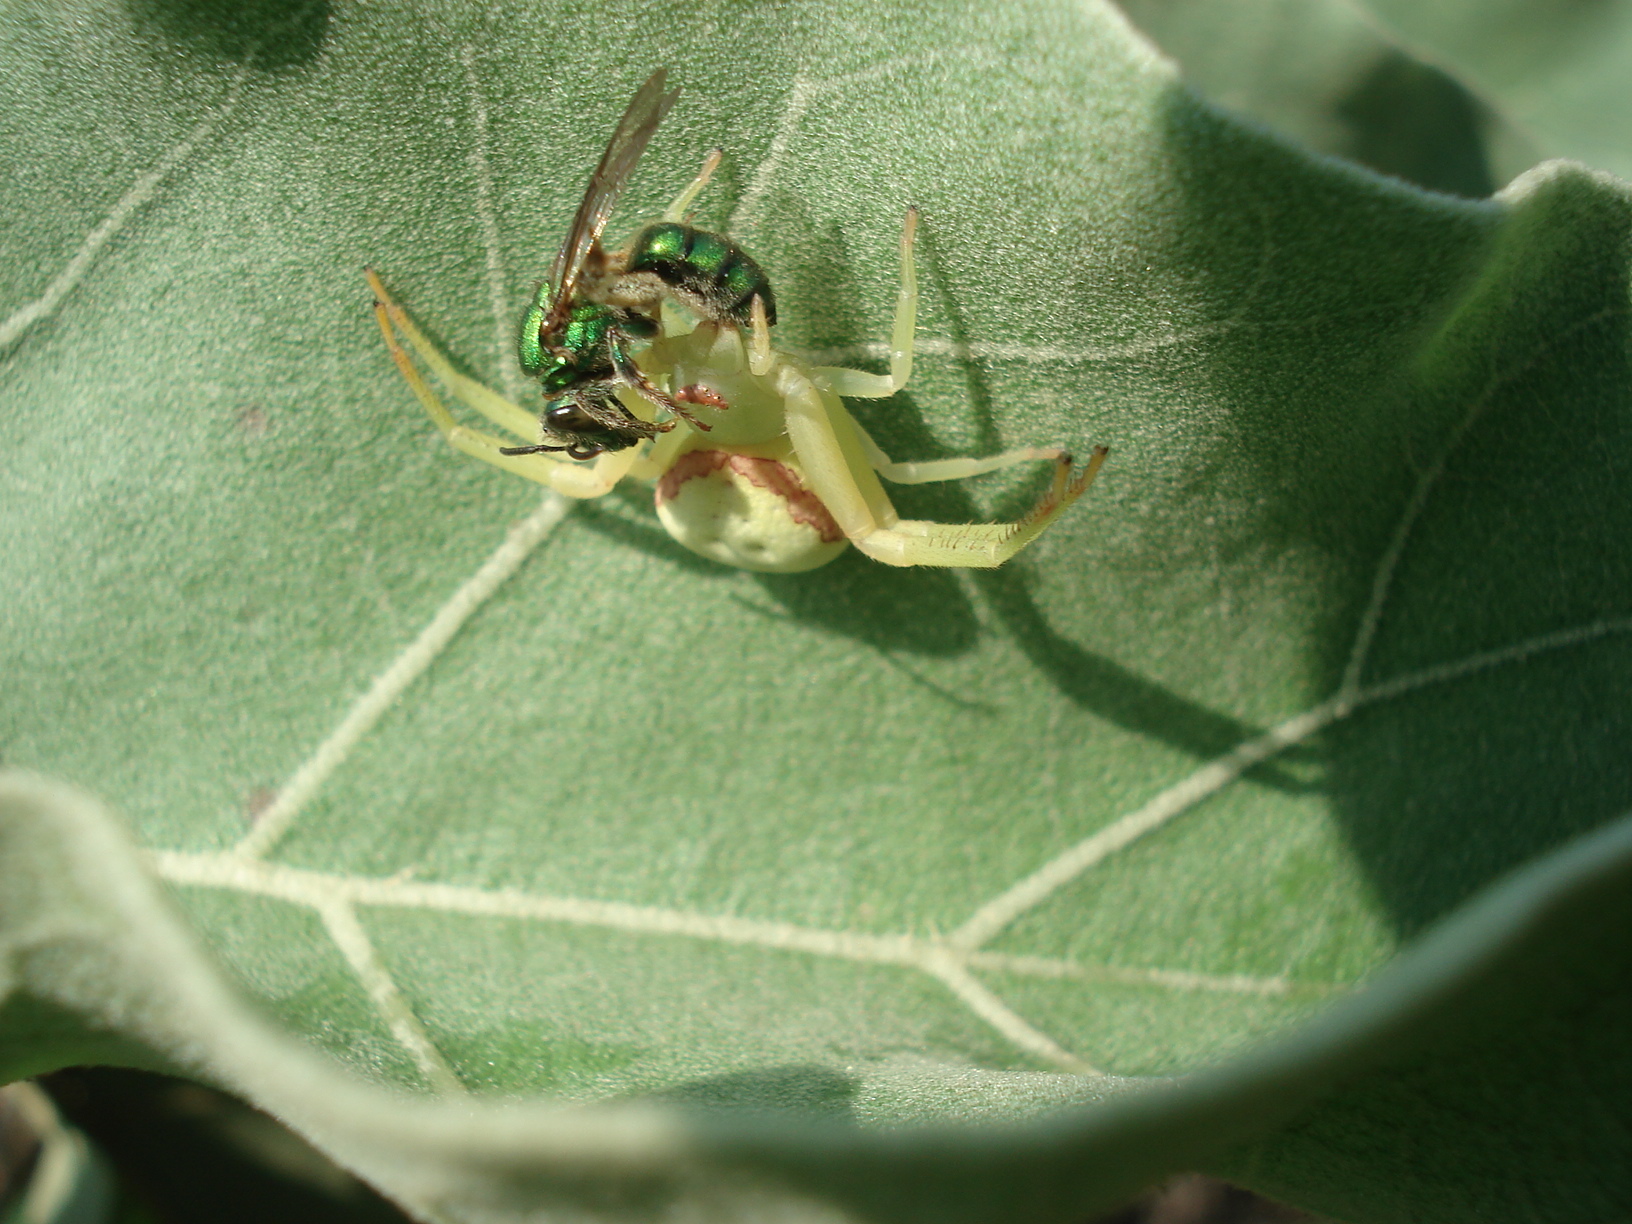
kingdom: Animalia
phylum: Arthropoda
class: Arachnida
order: Araneae
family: Thomisidae
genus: Misumenops
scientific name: Misumenops callinurus
